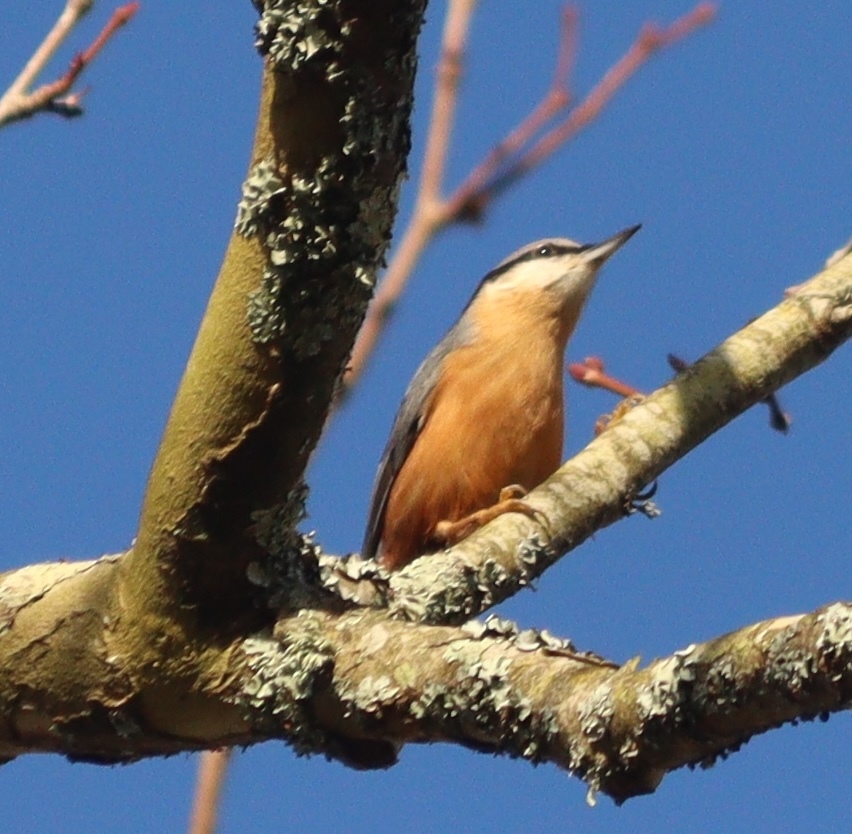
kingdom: Animalia
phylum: Chordata
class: Aves
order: Passeriformes
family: Sittidae
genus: Sitta
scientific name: Sitta europaea
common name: Eurasian nuthatch
